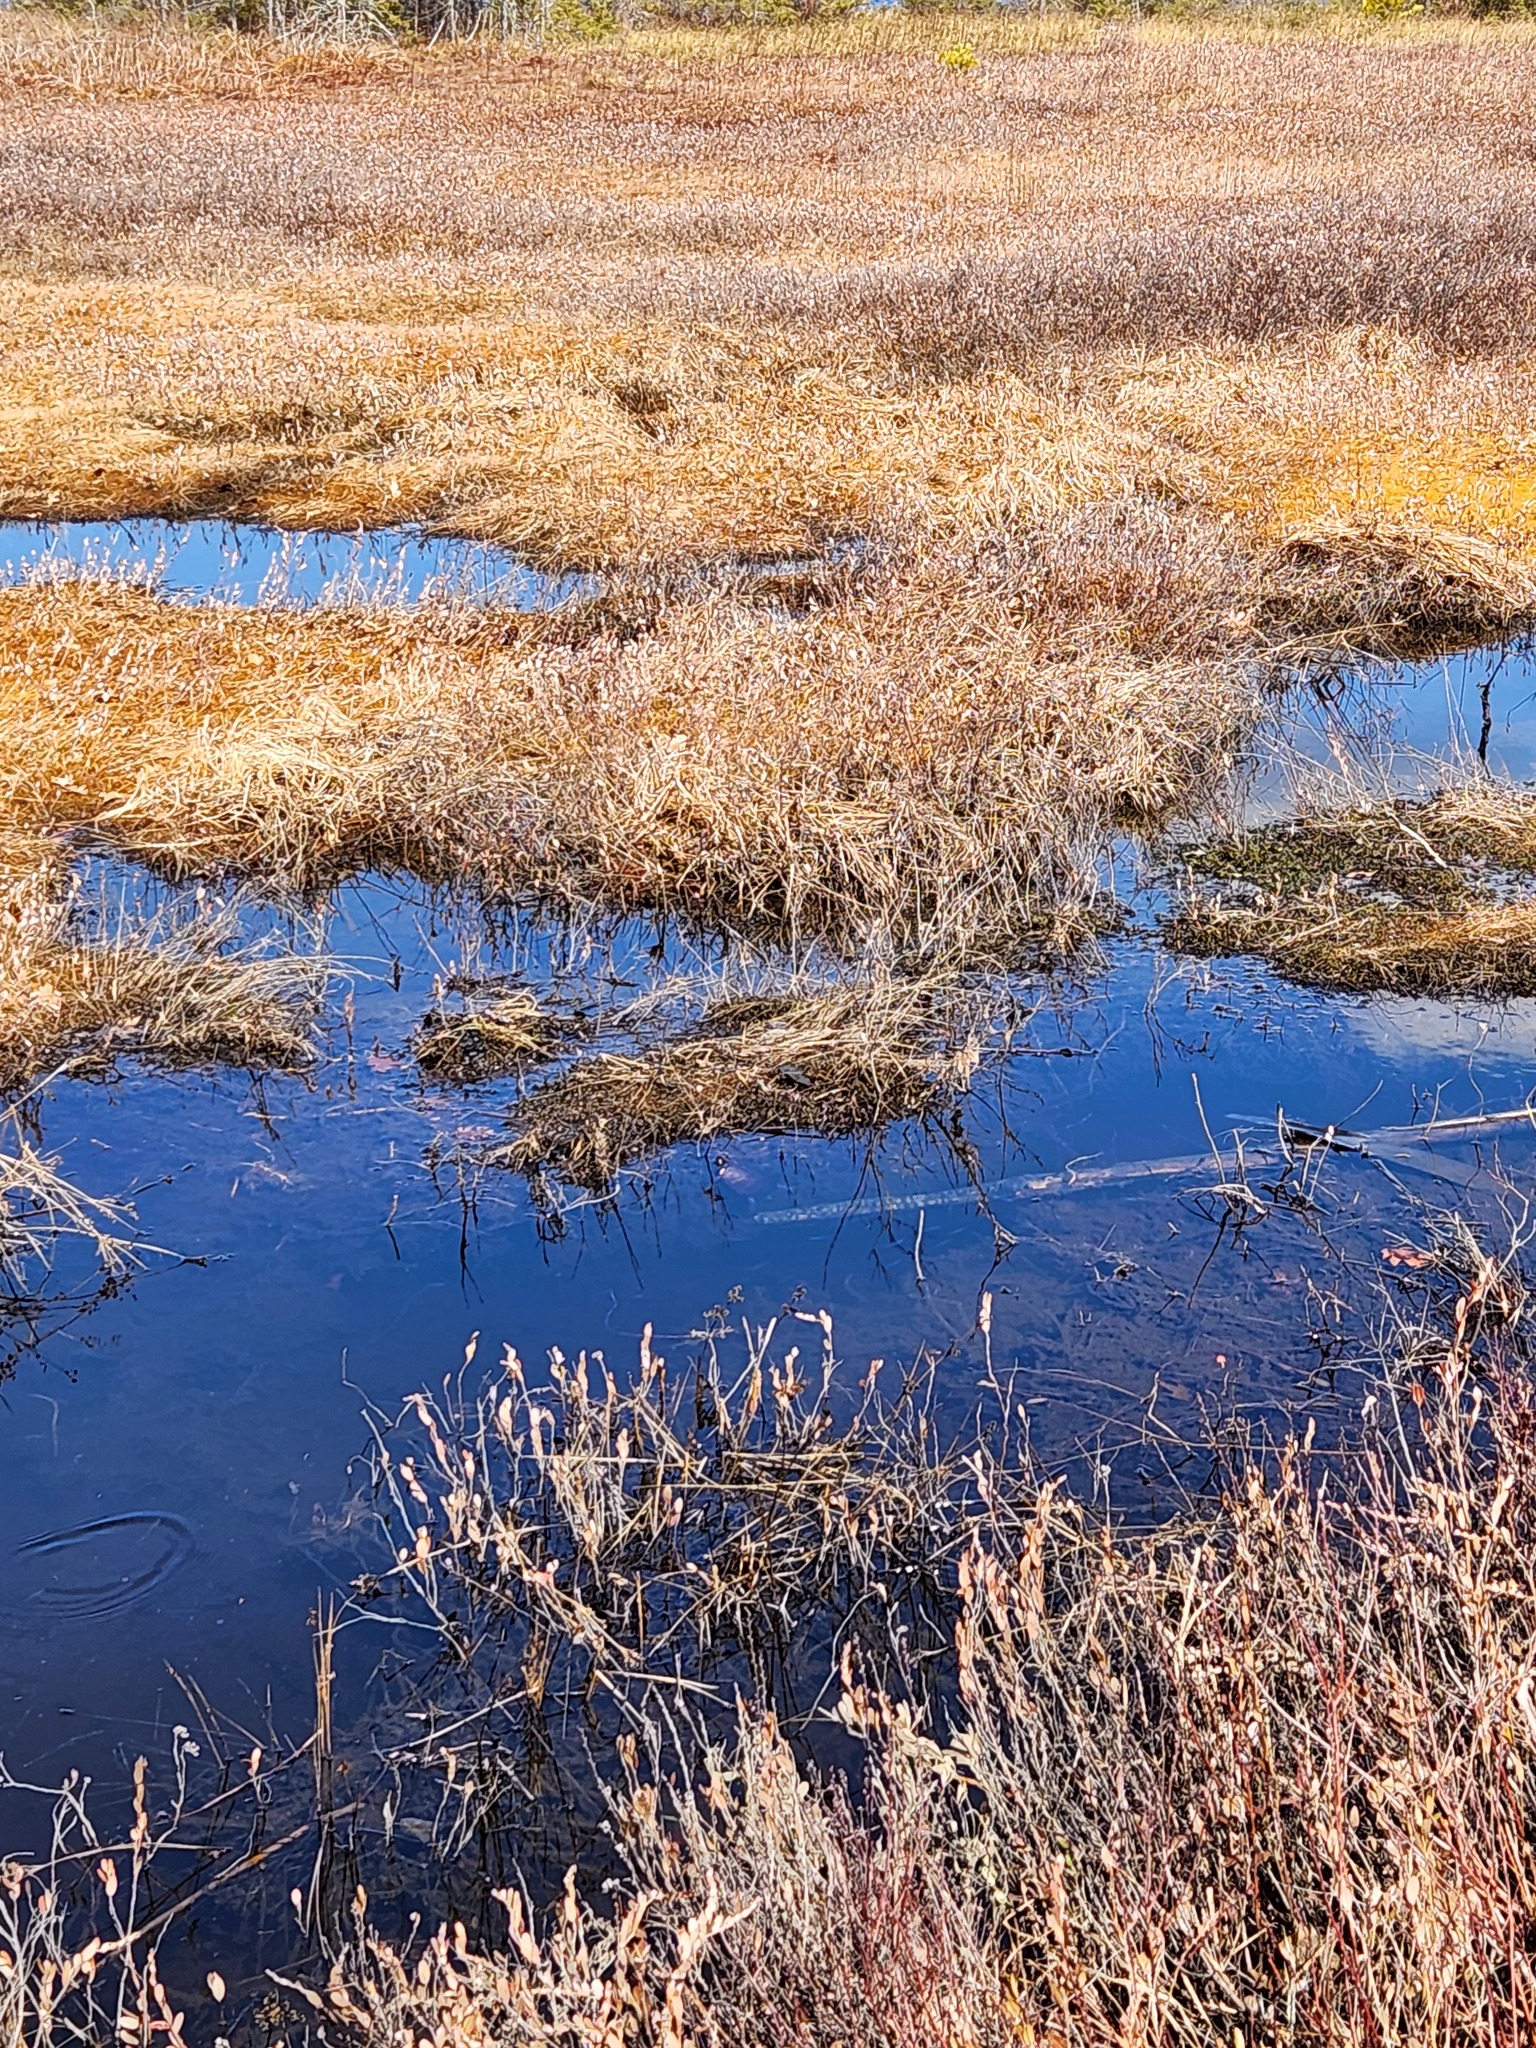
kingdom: Animalia
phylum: Chordata
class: Testudines
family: Emydidae
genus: Chrysemys
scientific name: Chrysemys picta
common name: Painted turtle
